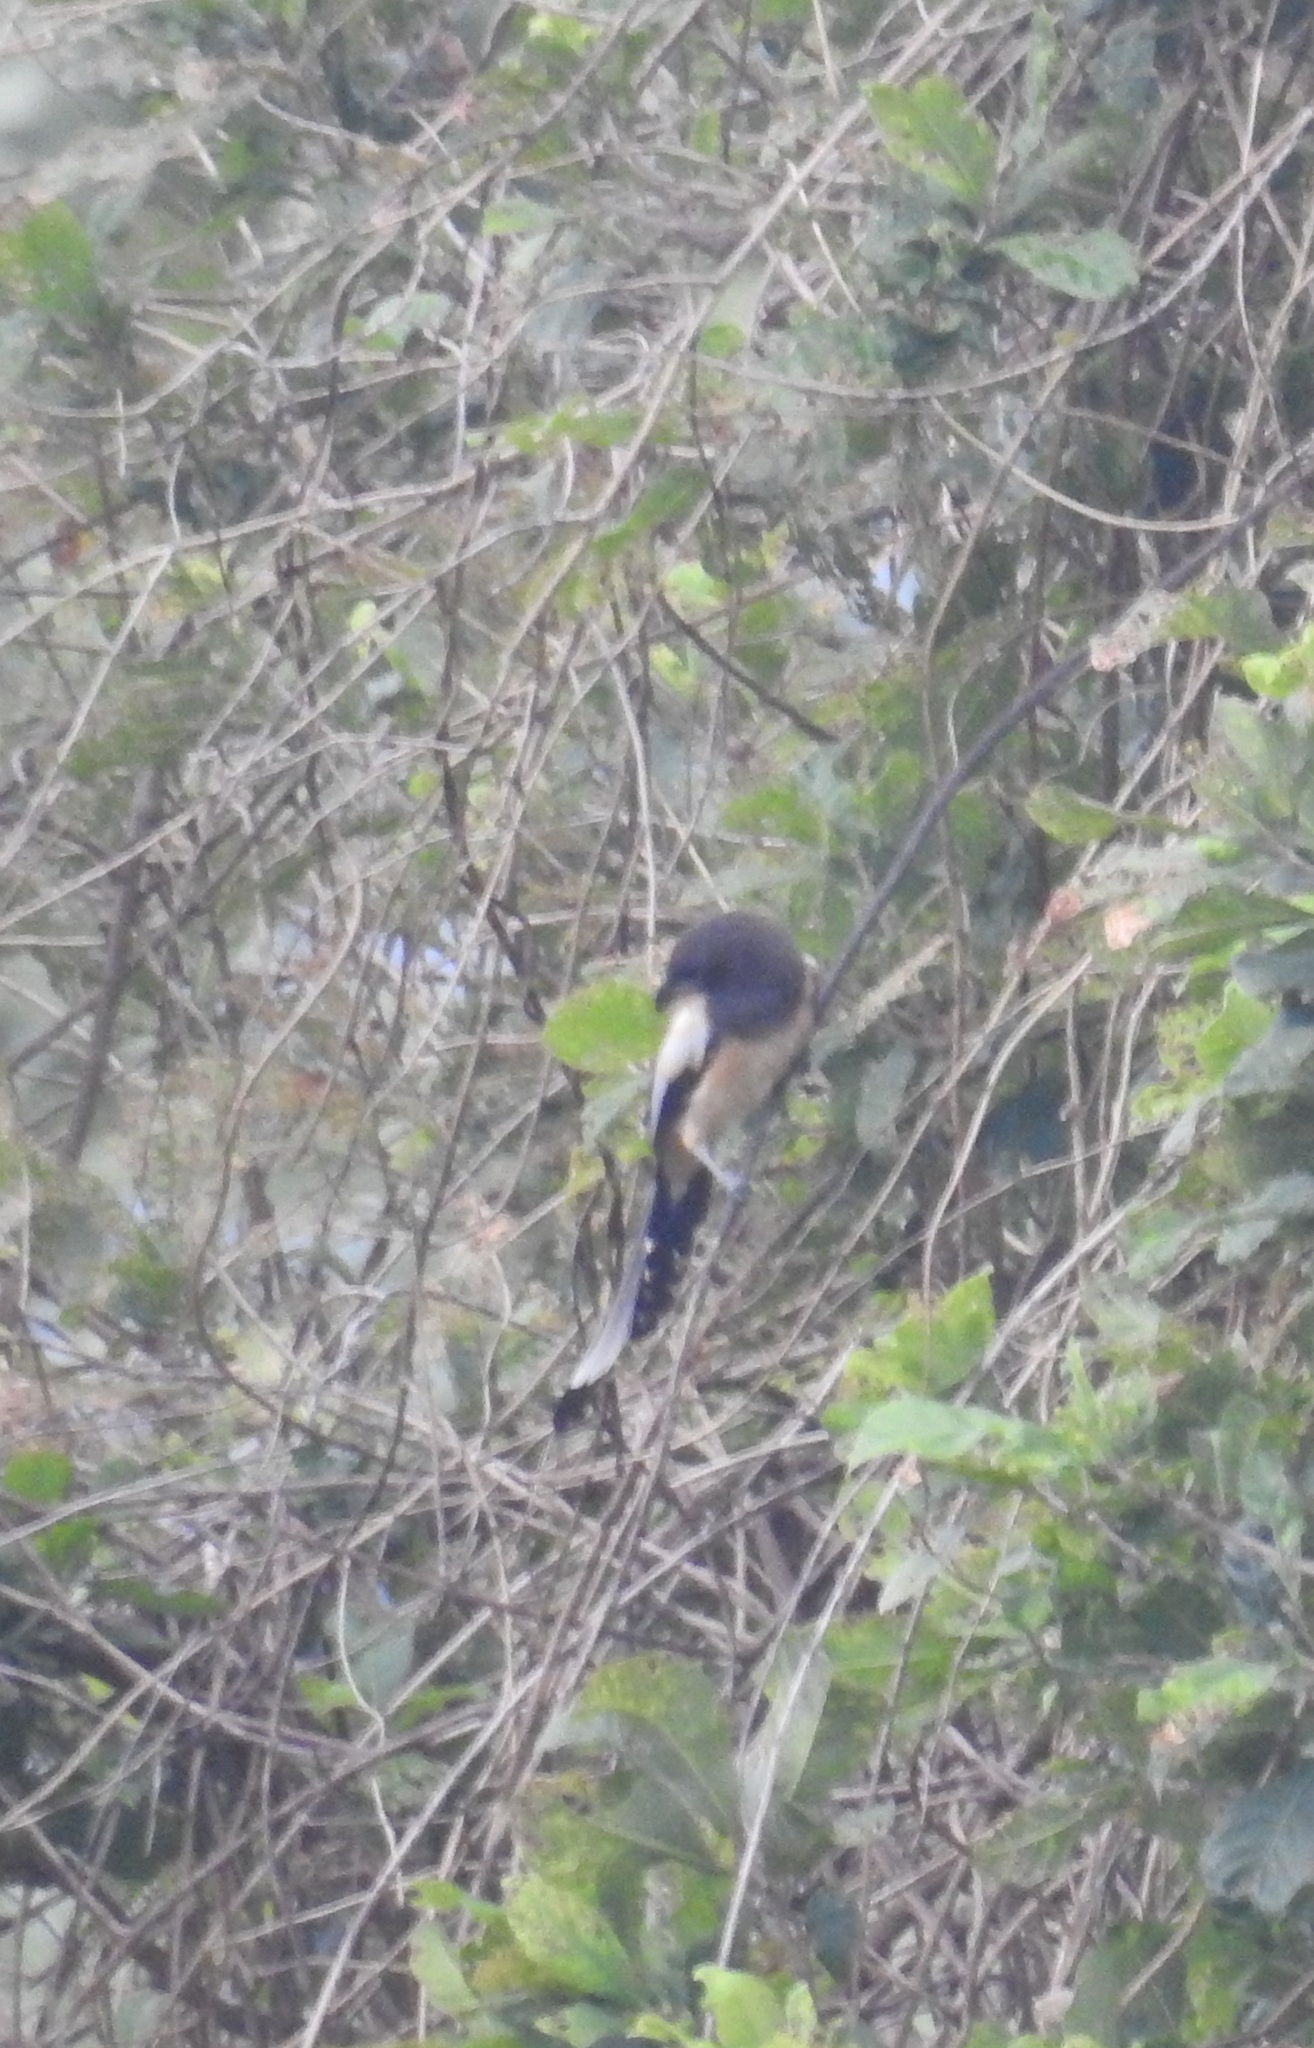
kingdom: Animalia
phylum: Chordata
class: Aves
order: Passeriformes
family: Corvidae
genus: Dendrocitta
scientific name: Dendrocitta vagabunda
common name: Rufous treepie
